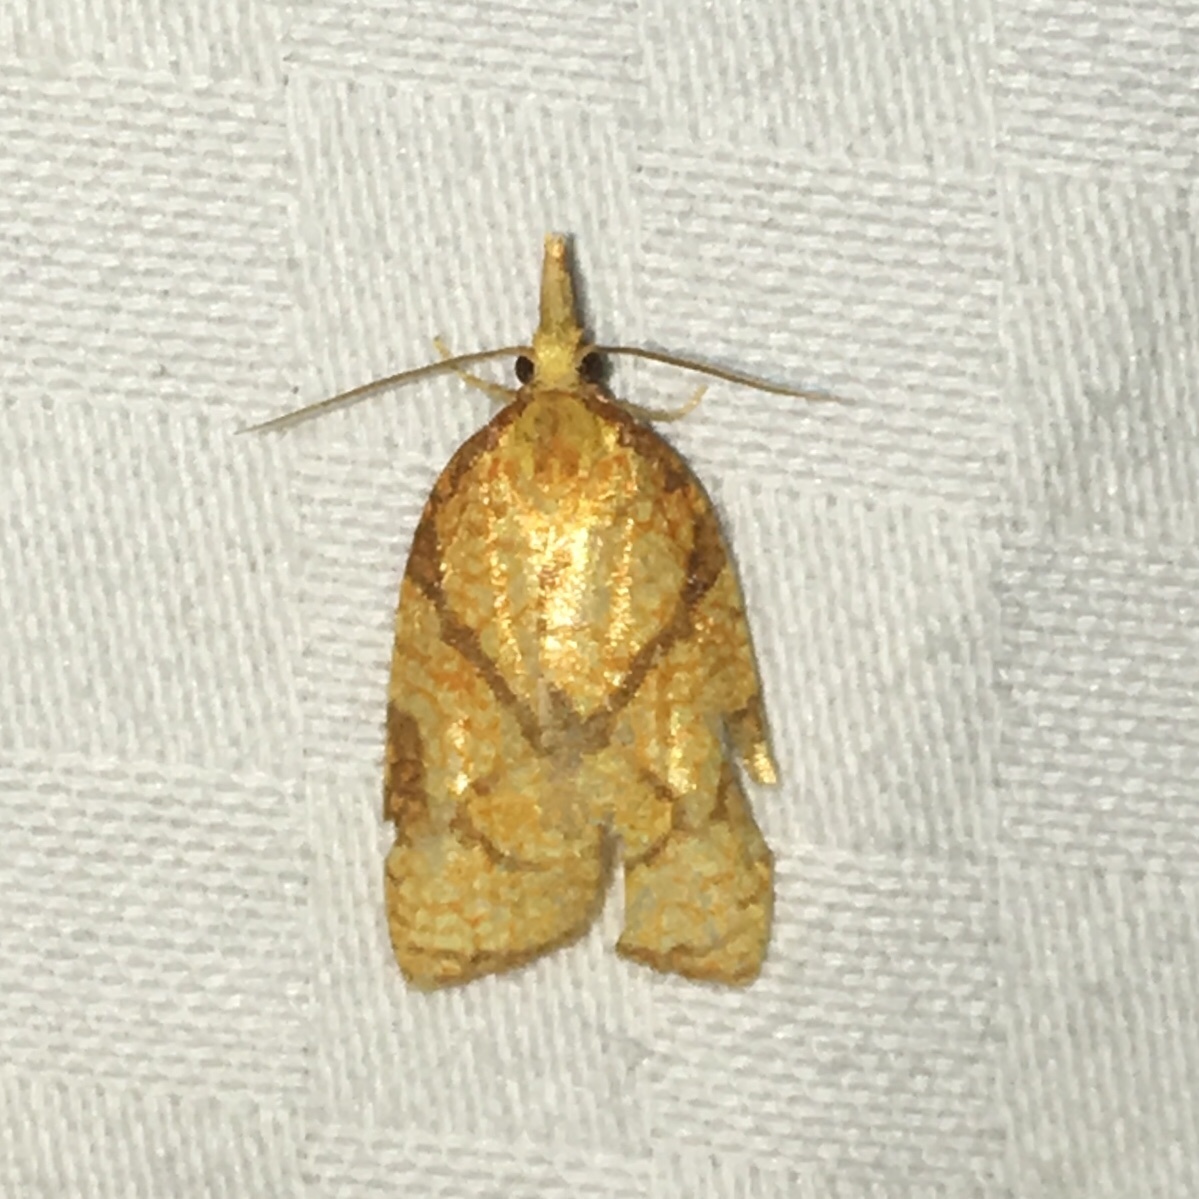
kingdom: Animalia
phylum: Arthropoda
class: Insecta
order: Lepidoptera
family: Tortricidae
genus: Cenopis
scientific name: Cenopis reticulatana
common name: Reticulated fruitworm moth
